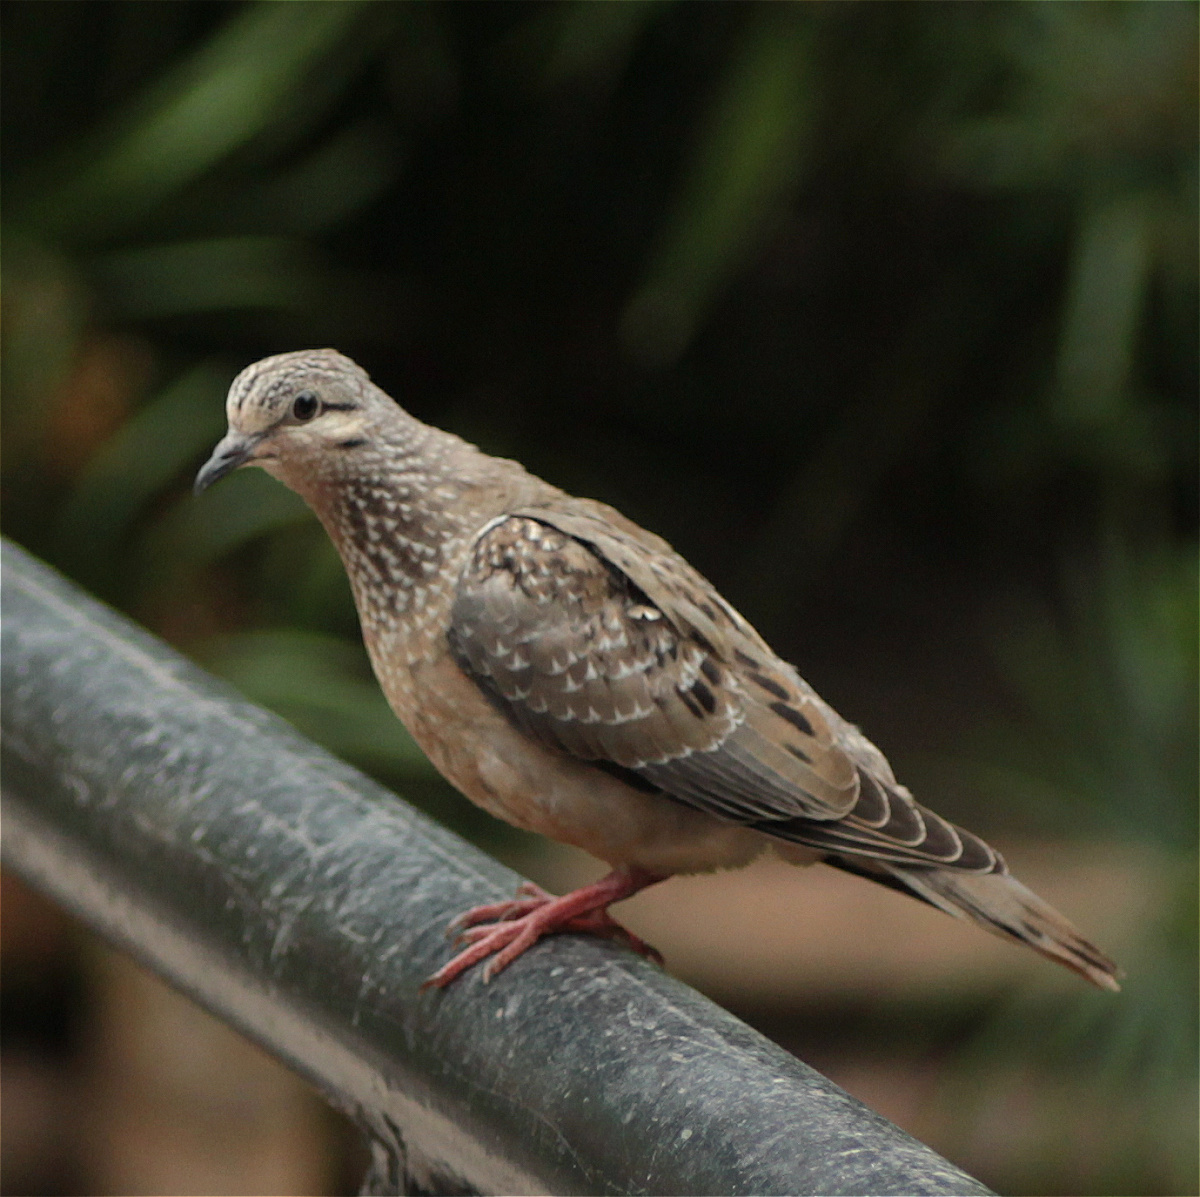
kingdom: Animalia
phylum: Chordata
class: Aves
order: Columbiformes
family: Columbidae
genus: Zenaida
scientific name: Zenaida auriculata
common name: Eared dove
